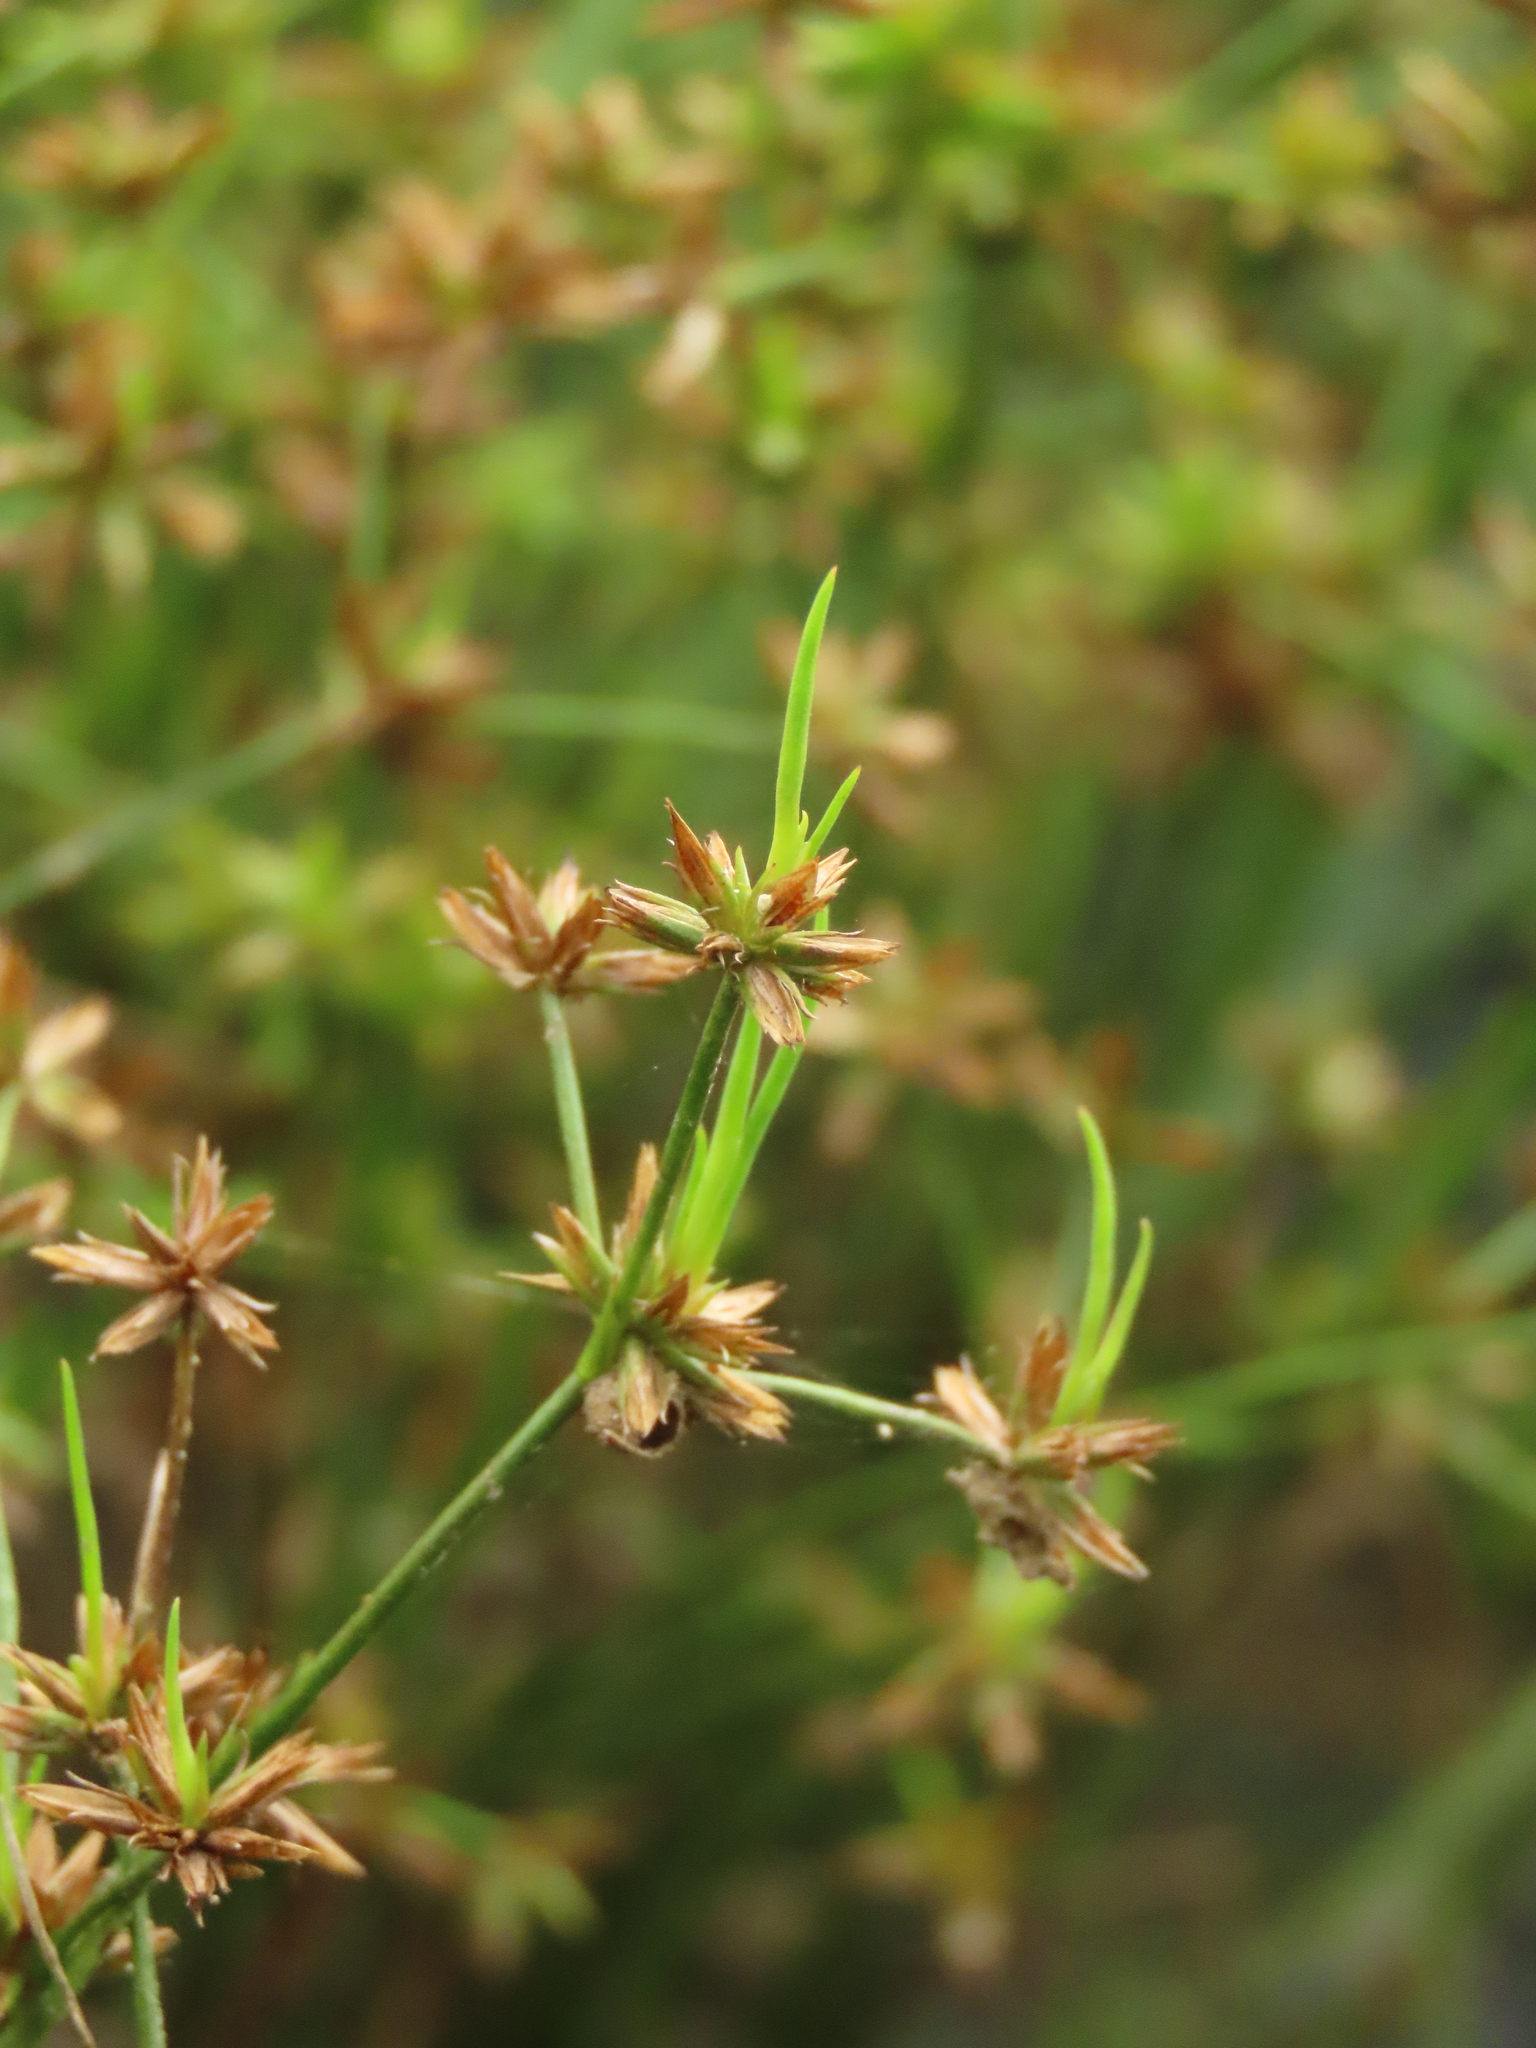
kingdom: Plantae
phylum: Tracheophyta
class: Liliopsida
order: Poales
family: Juncaceae
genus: Juncus
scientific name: Juncus prismatocarpus
